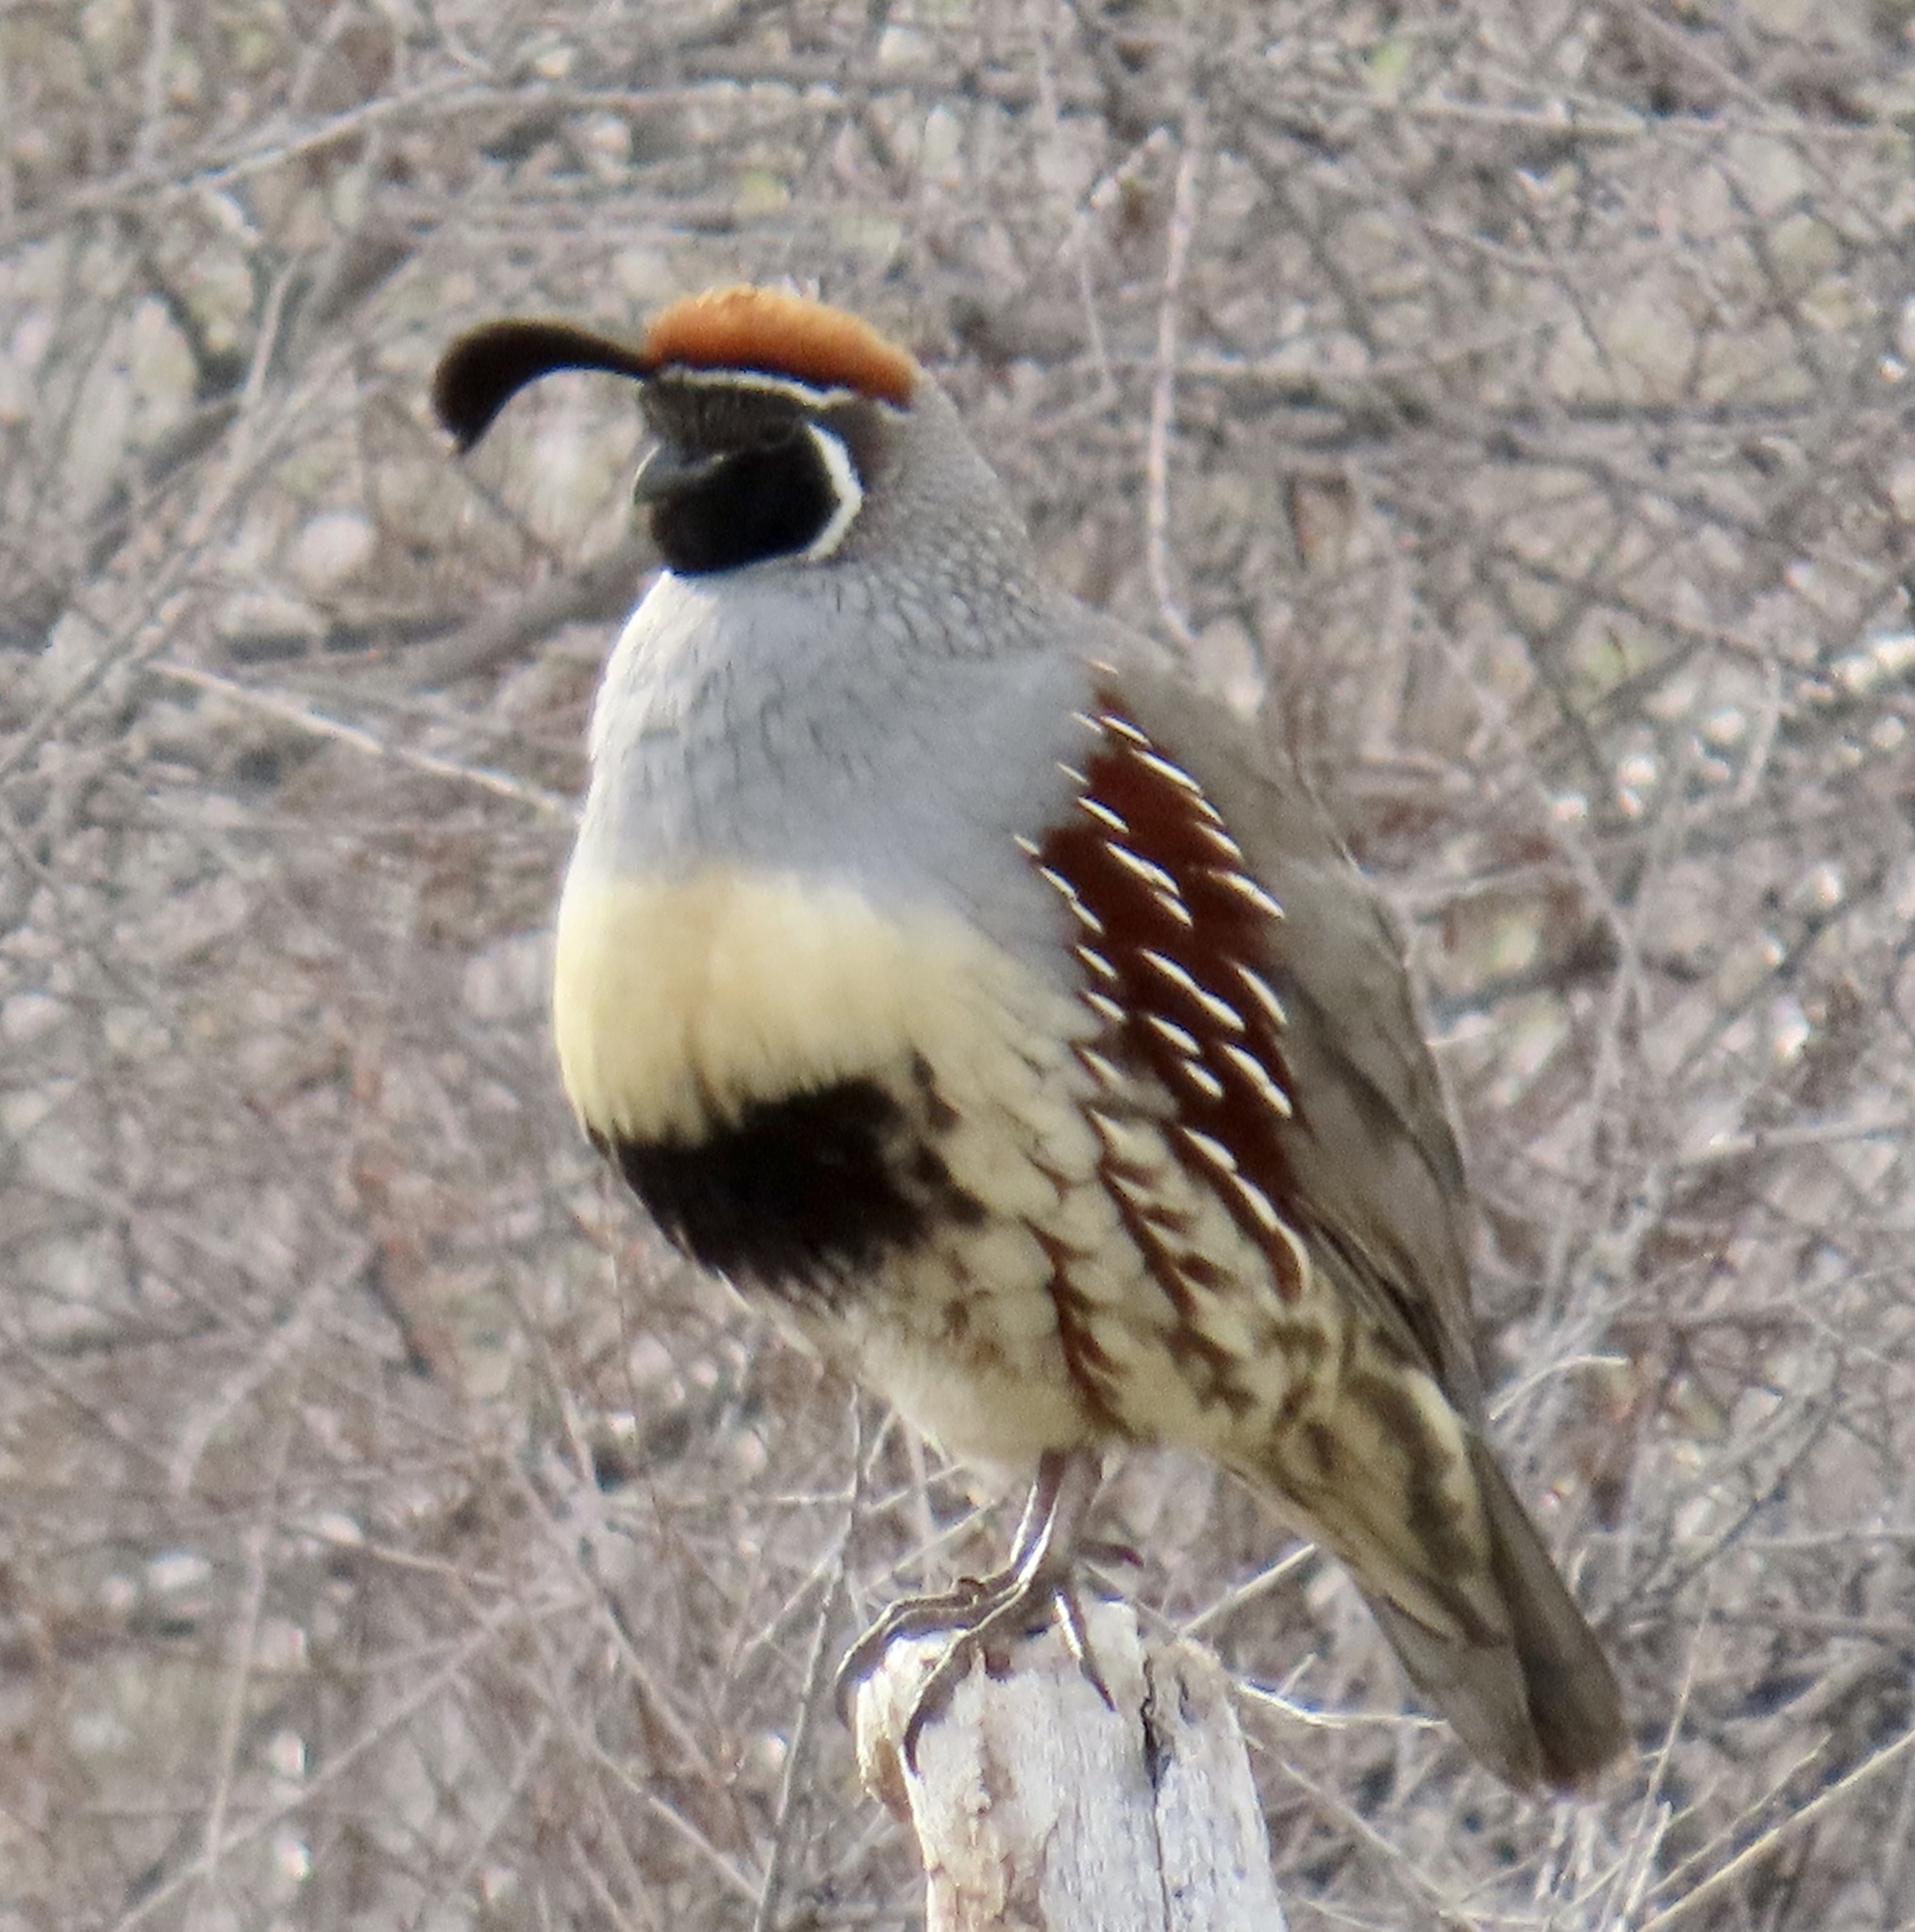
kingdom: Animalia
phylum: Chordata
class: Aves
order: Galliformes
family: Odontophoridae
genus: Callipepla
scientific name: Callipepla gambelii
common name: Gambel's quail
